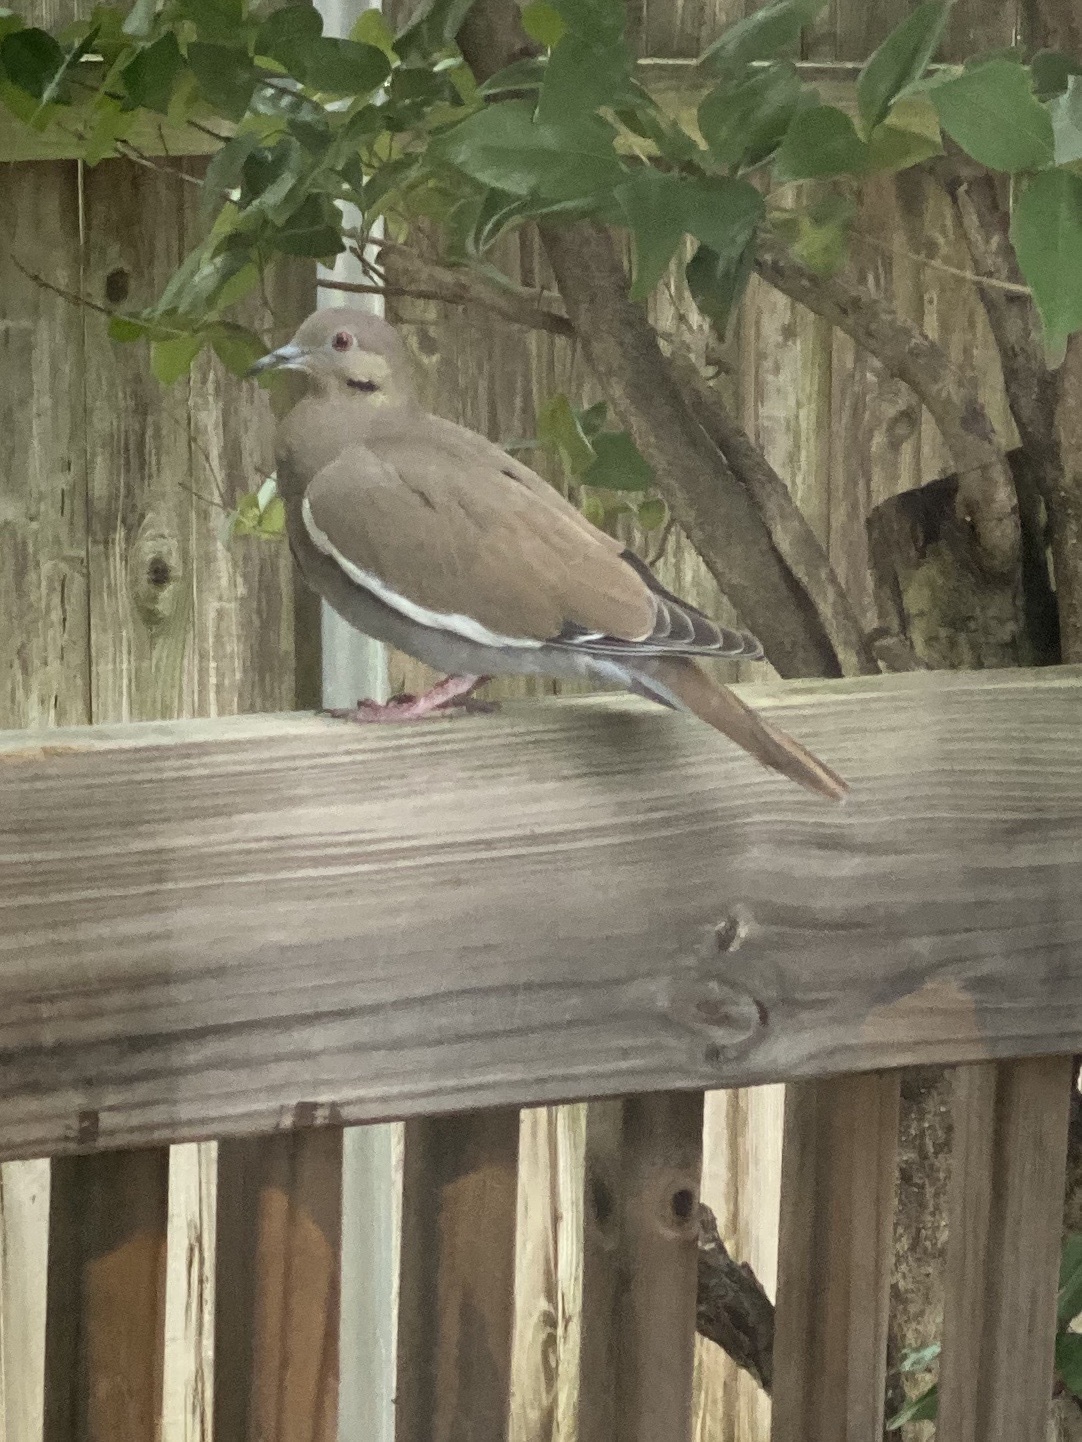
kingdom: Animalia
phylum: Chordata
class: Aves
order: Columbiformes
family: Columbidae
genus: Zenaida
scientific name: Zenaida asiatica
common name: White-winged dove
